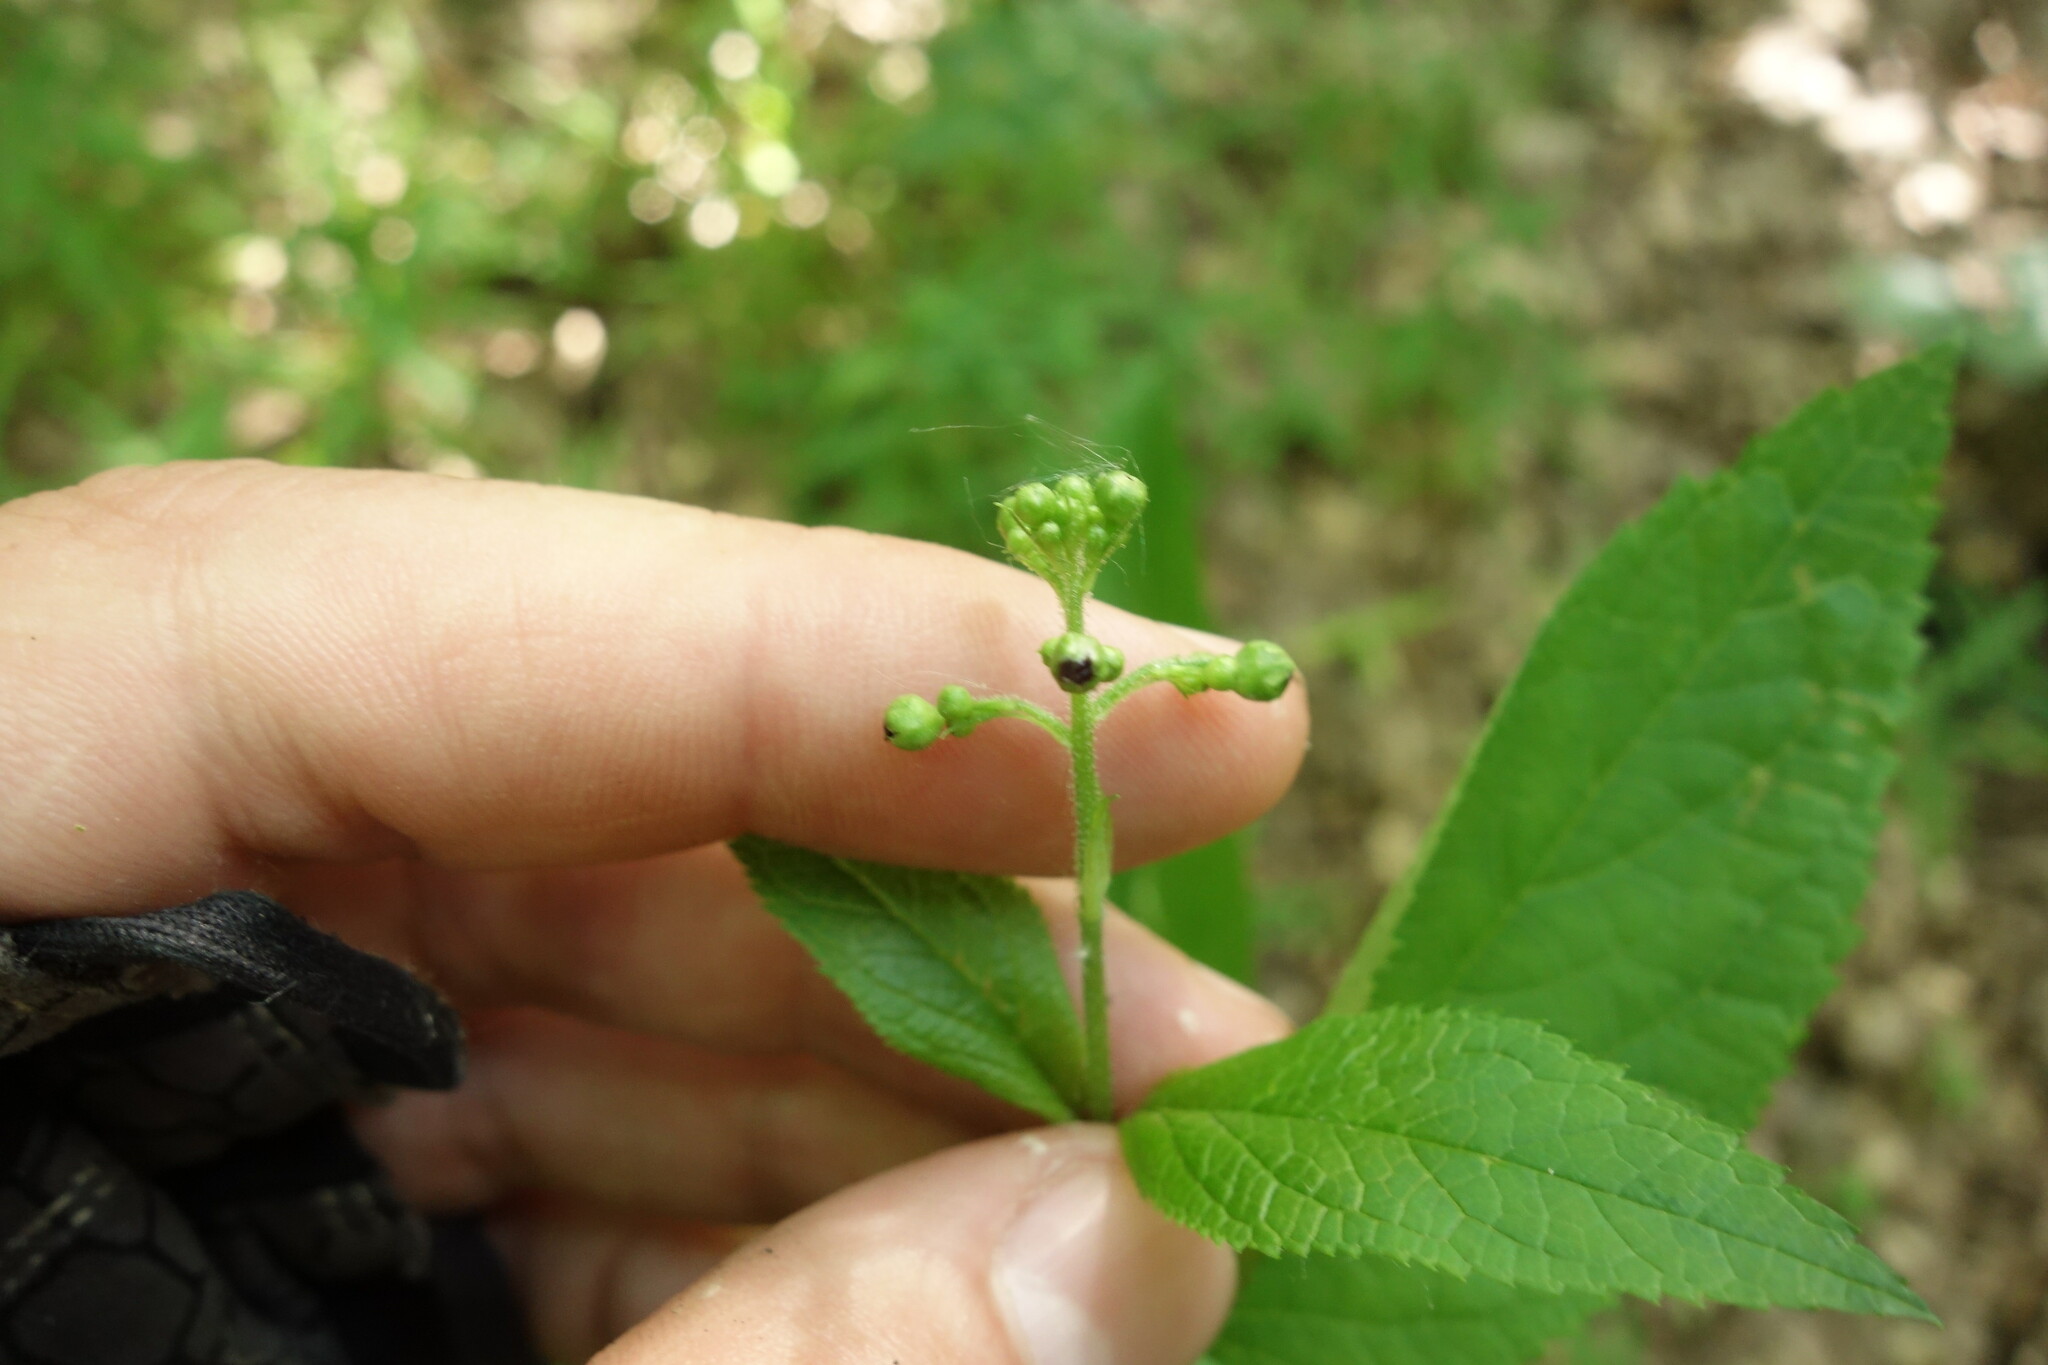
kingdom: Plantae
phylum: Tracheophyta
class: Magnoliopsida
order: Lamiales
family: Scrophulariaceae
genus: Scrophularia
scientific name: Scrophularia nodosa
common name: Common figwort
